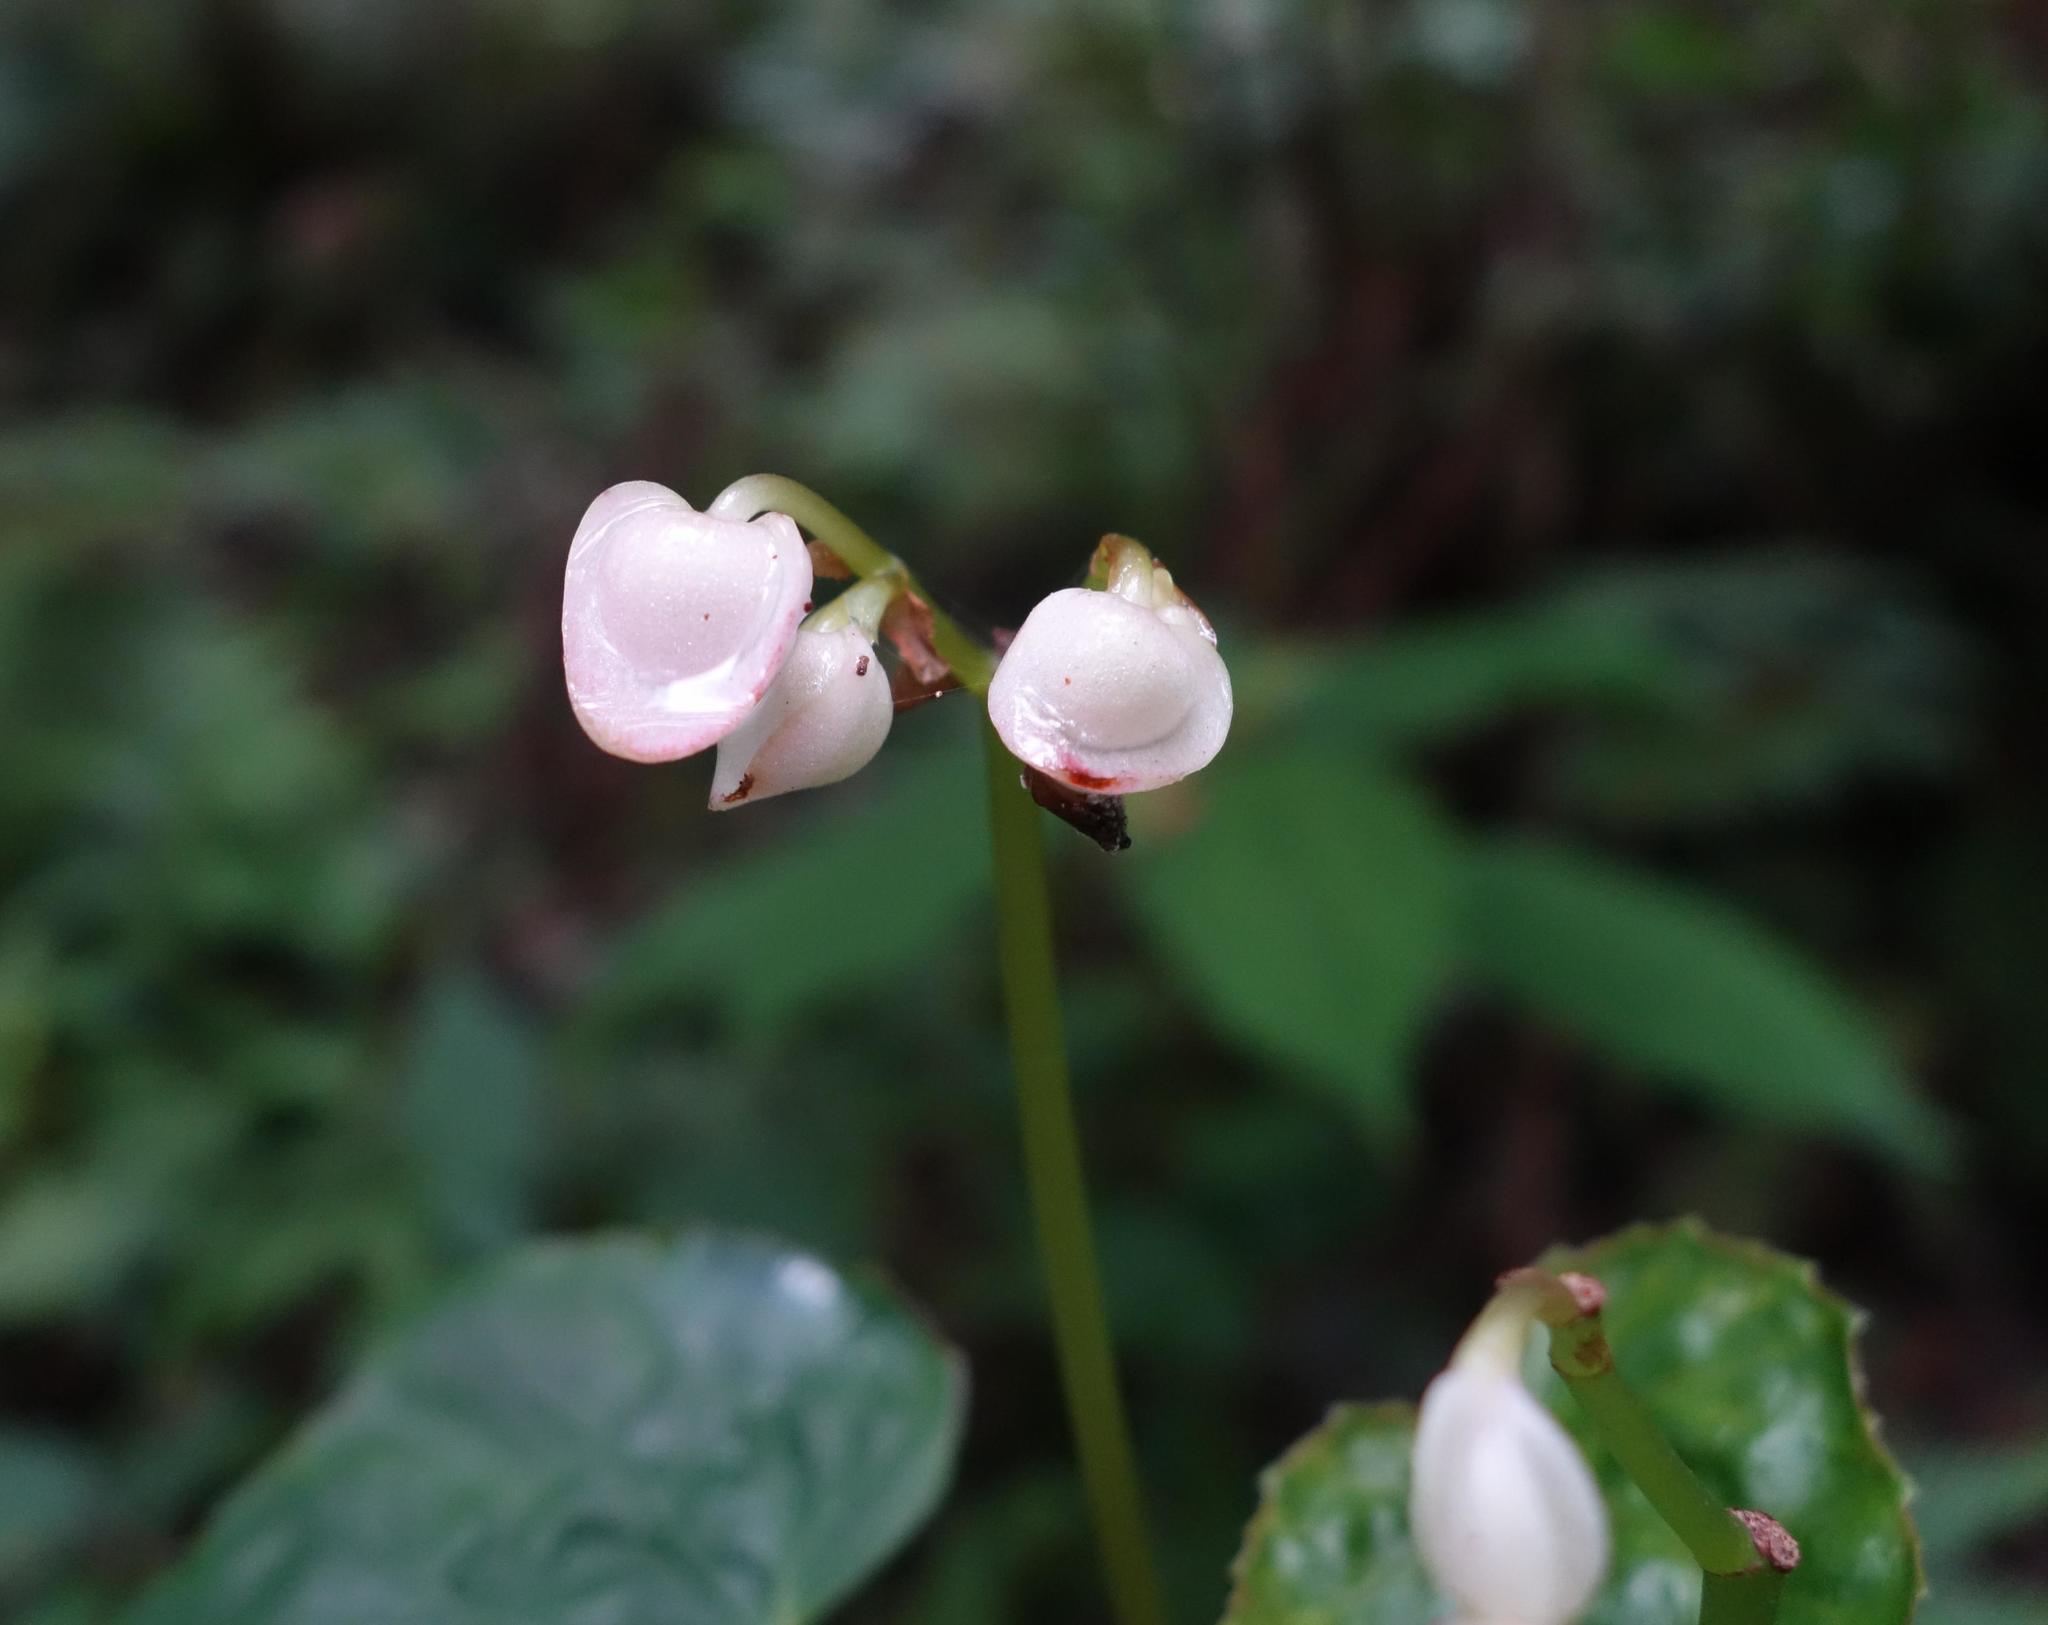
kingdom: Plantae
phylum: Tracheophyta
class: Magnoliopsida
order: Cucurbitales
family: Begoniaceae
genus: Begonia
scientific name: Begonia formosana
